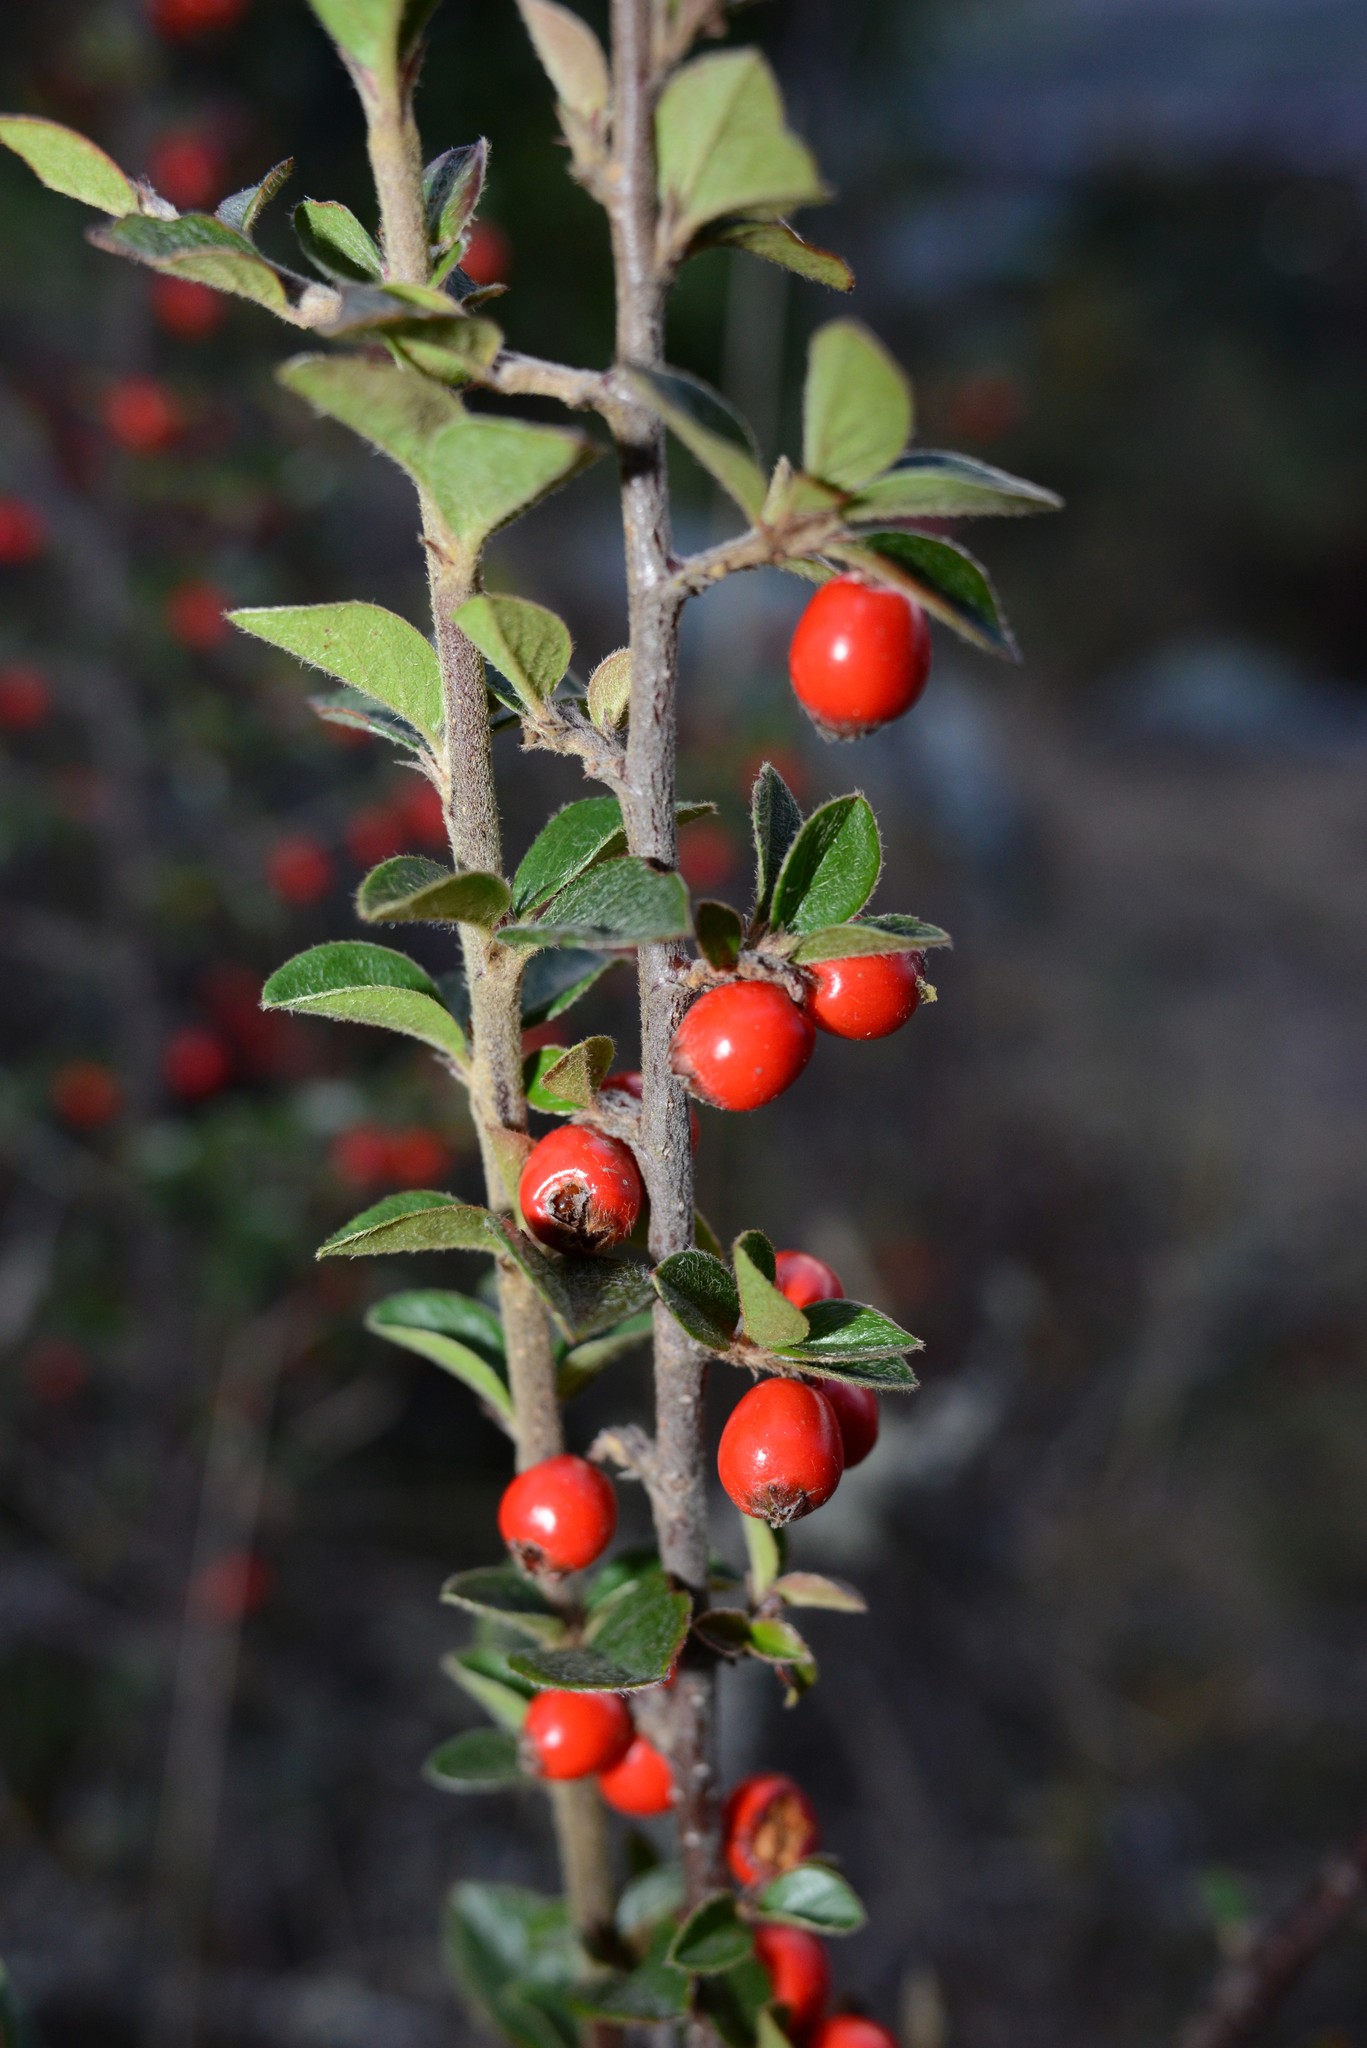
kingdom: Plantae
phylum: Tracheophyta
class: Magnoliopsida
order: Rosales
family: Rosaceae
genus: Cotoneaster
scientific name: Cotoneaster simonsii
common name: Himalayan cotoneaster
